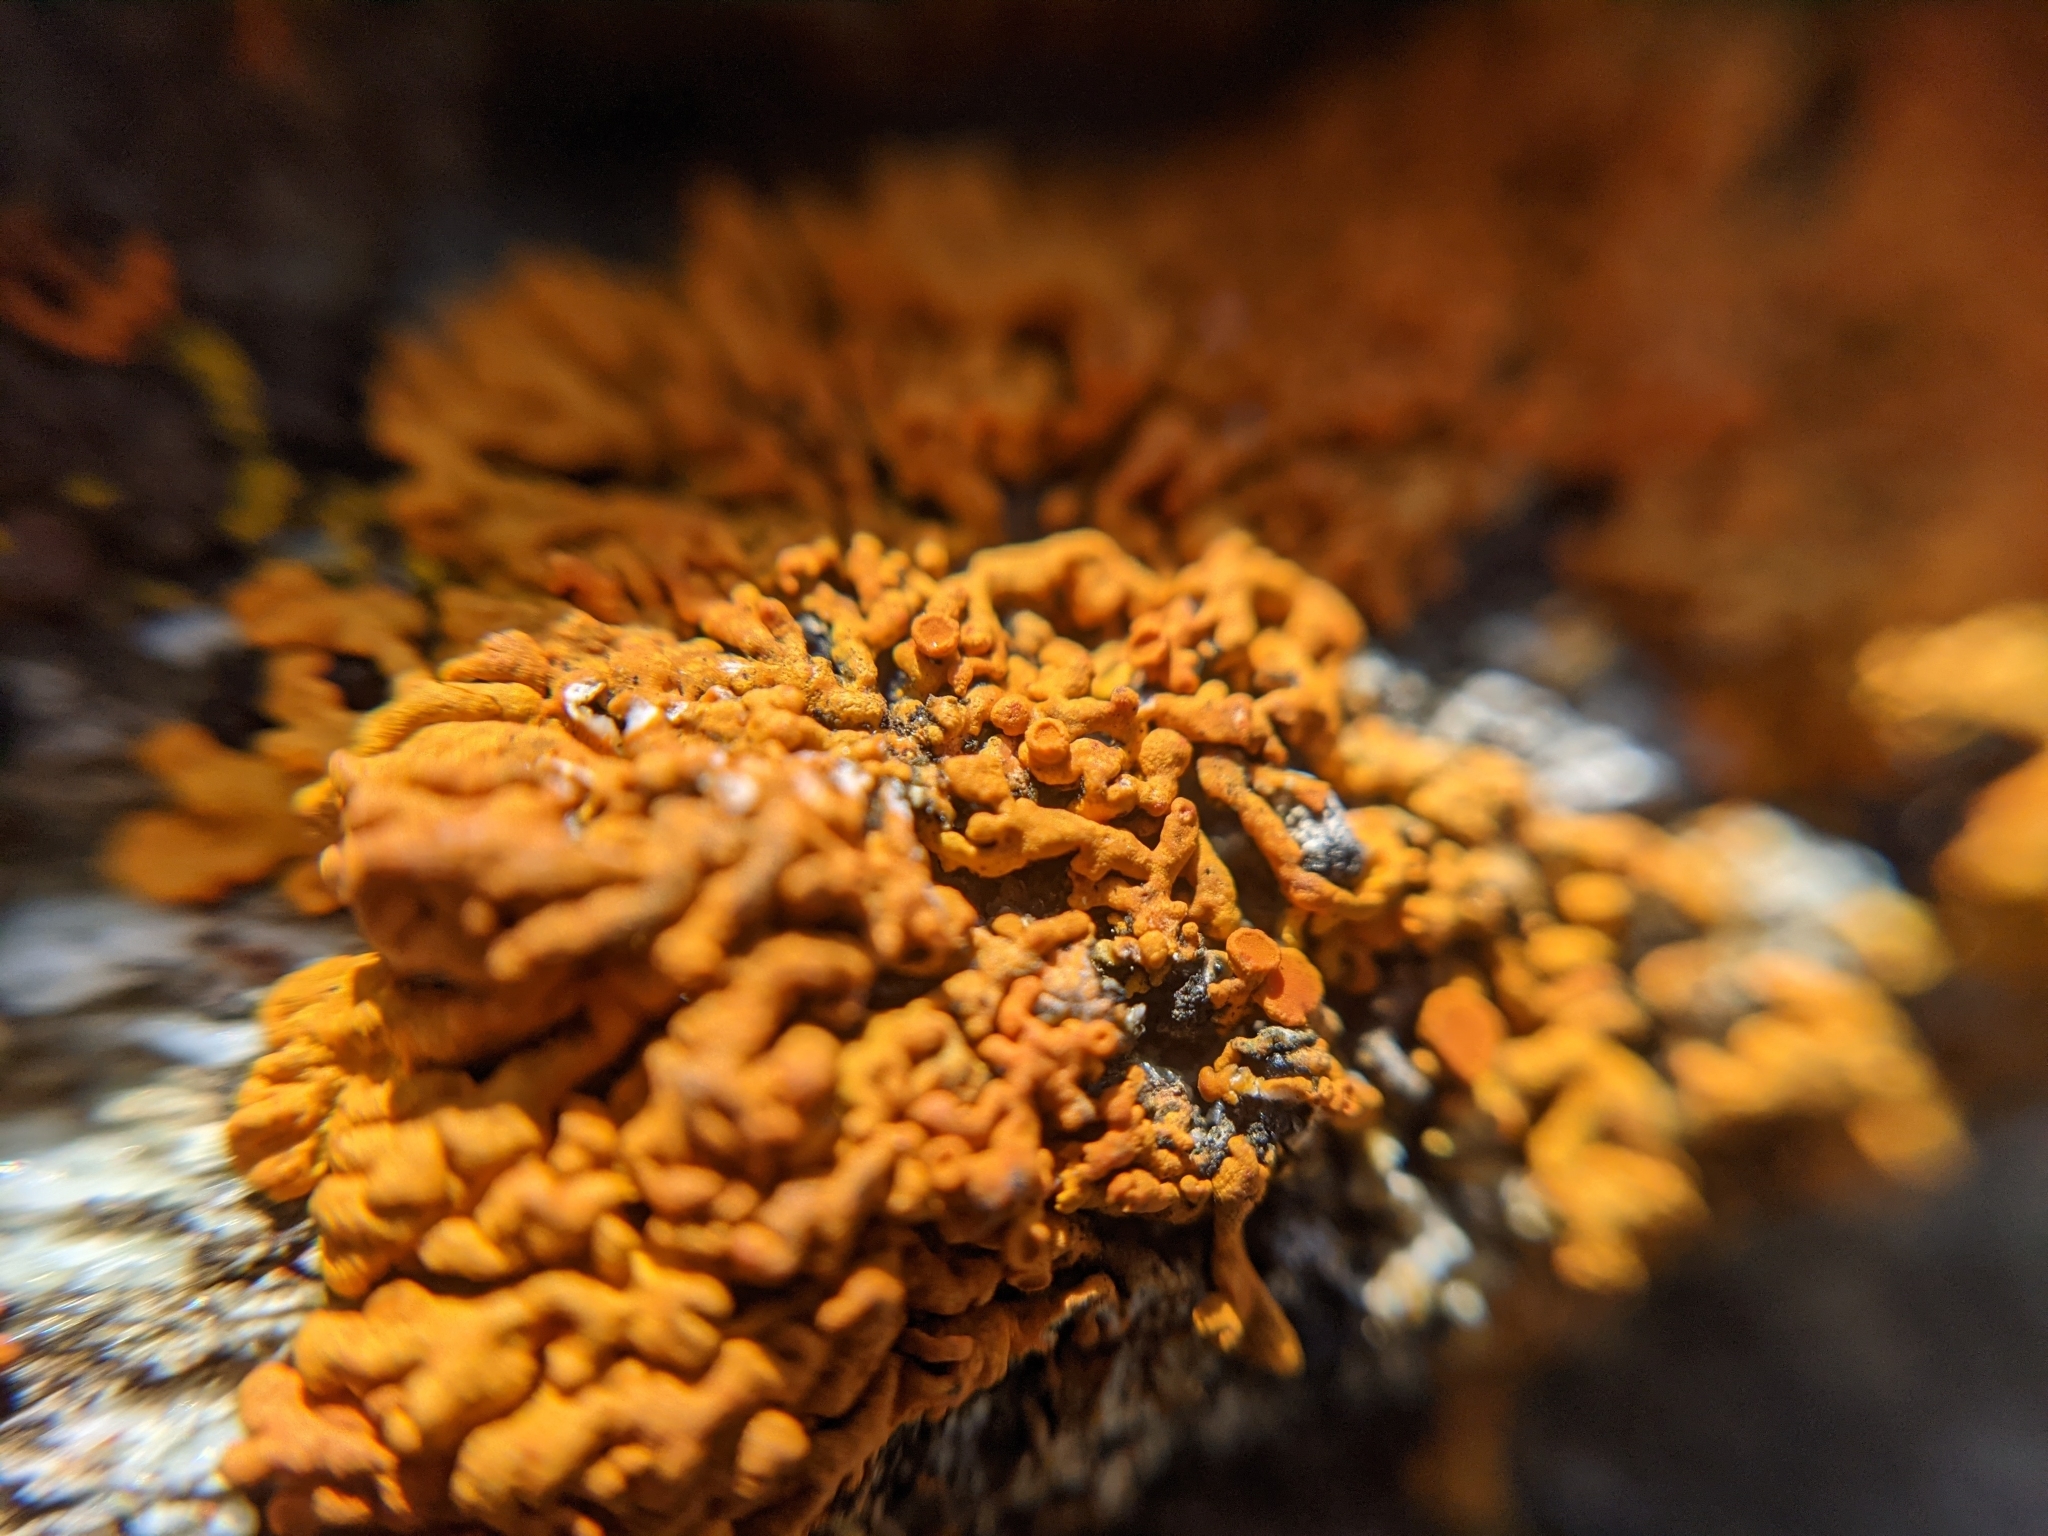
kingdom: Fungi
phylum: Ascomycota
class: Lecanoromycetes
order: Teloschistales
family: Teloschistaceae
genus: Xanthoria
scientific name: Xanthoria elegans
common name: Elegant sunburst lichen
